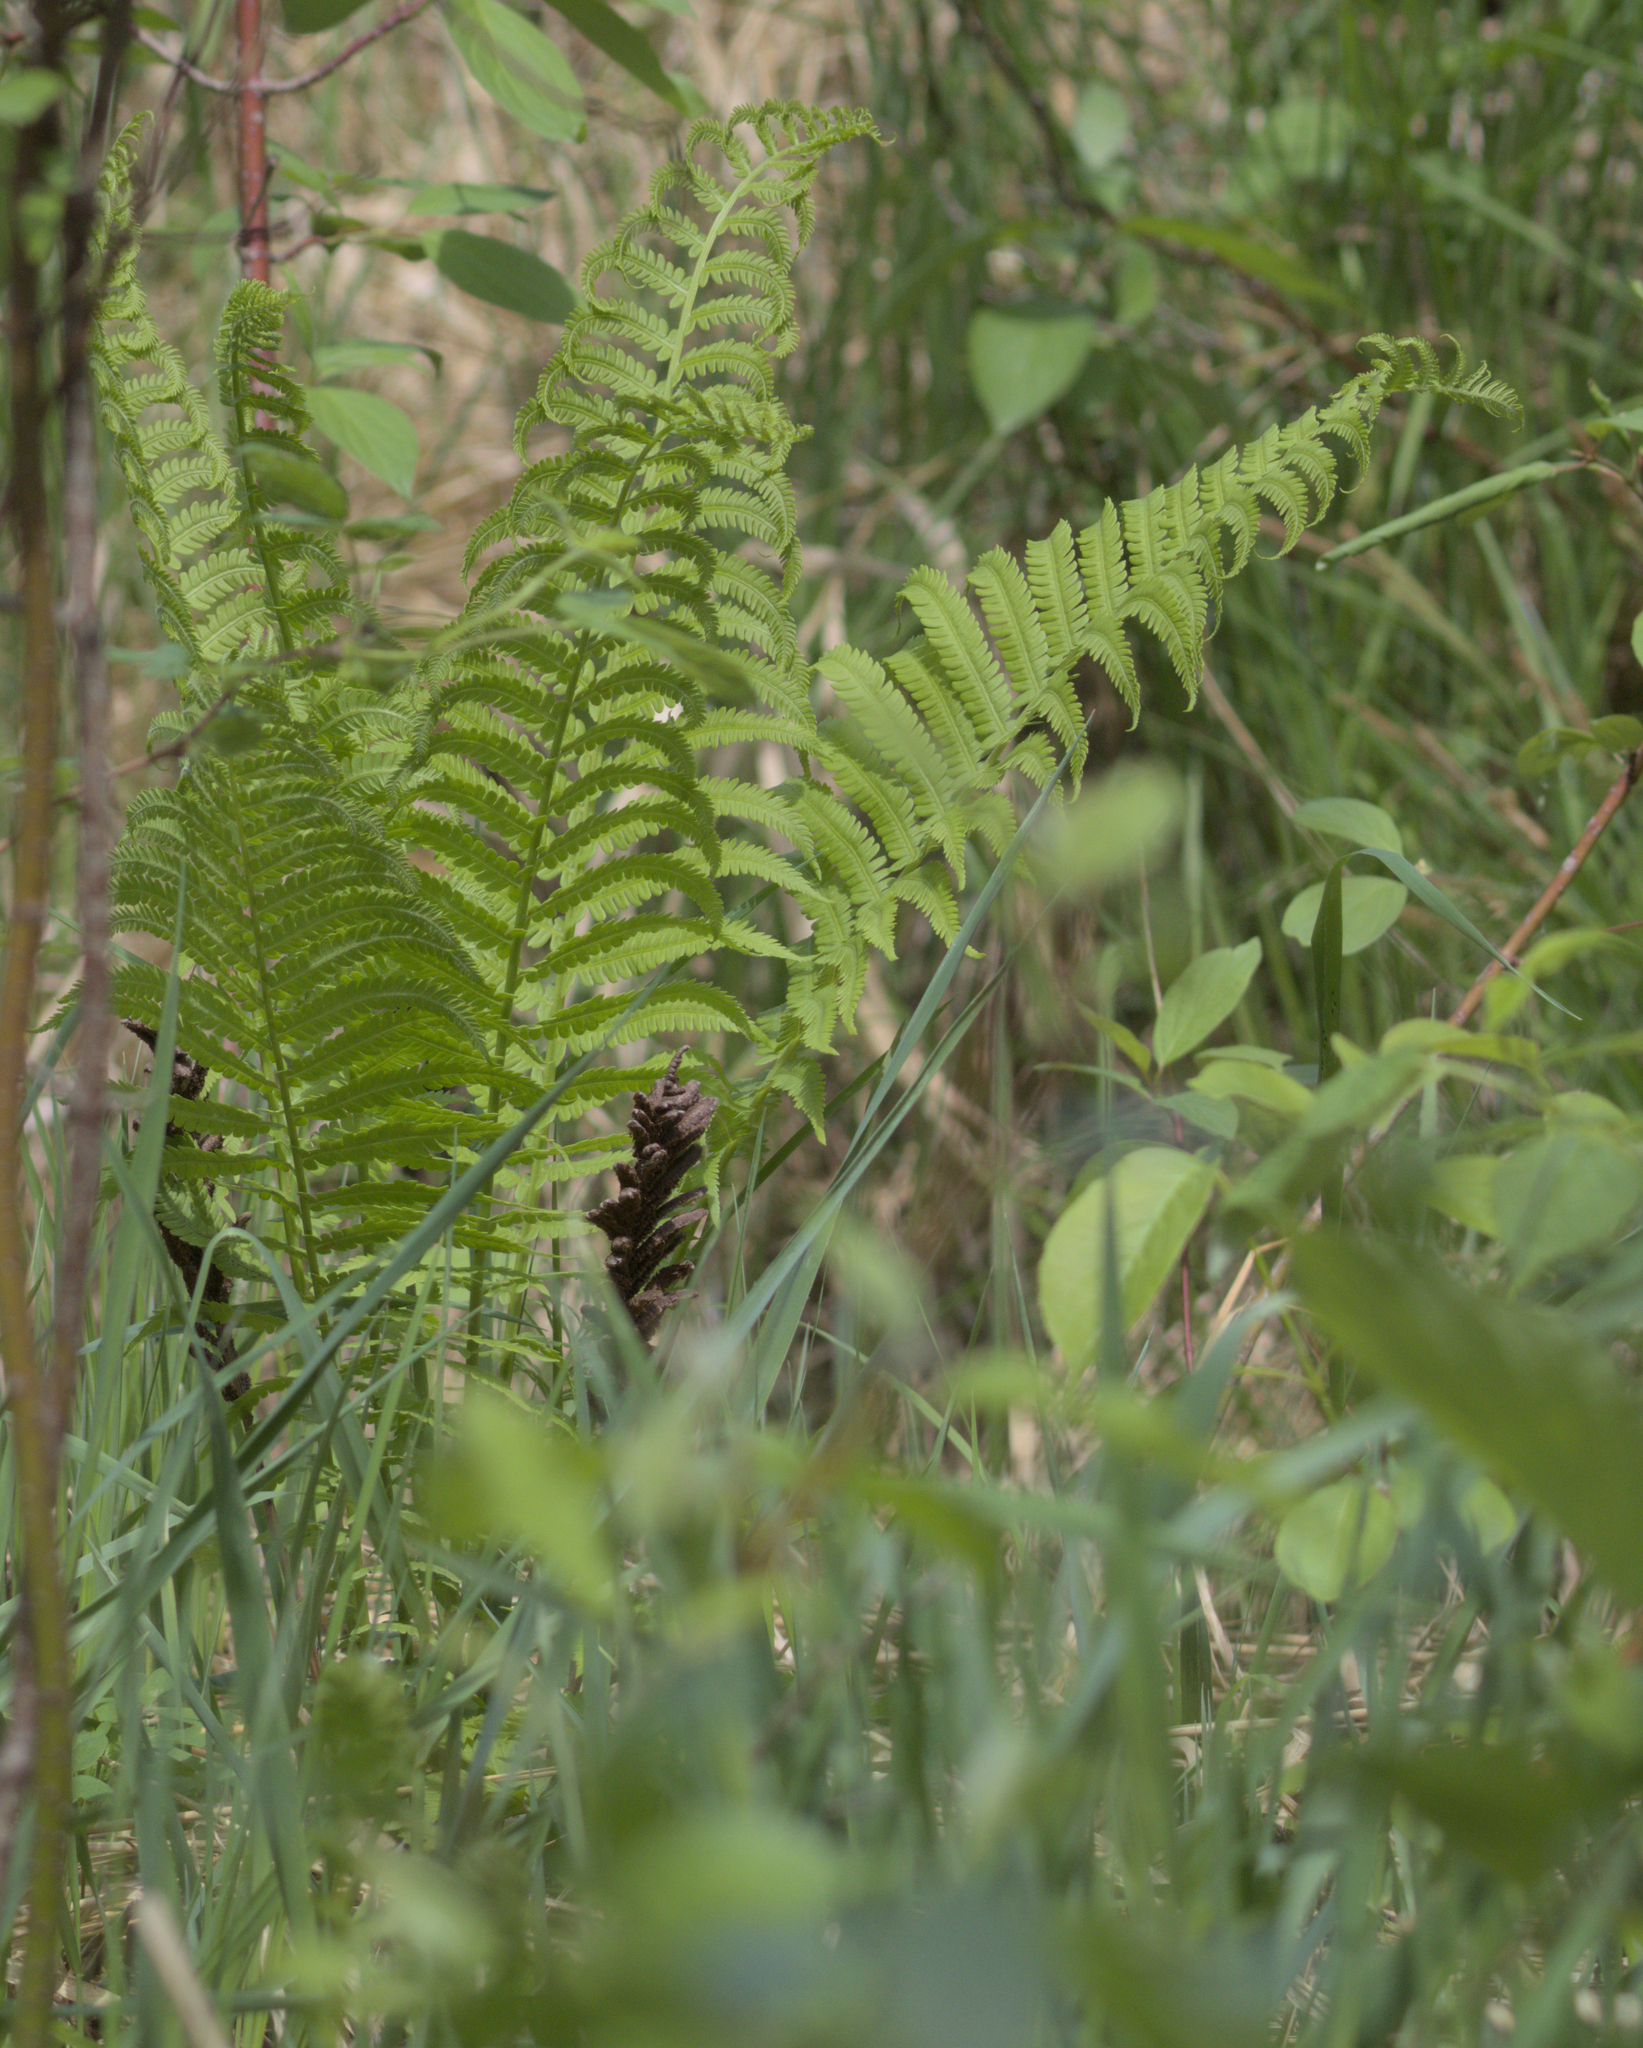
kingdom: Plantae
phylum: Tracheophyta
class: Polypodiopsida
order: Polypodiales
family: Onocleaceae
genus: Matteuccia
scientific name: Matteuccia struthiopteris
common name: Ostrich fern
